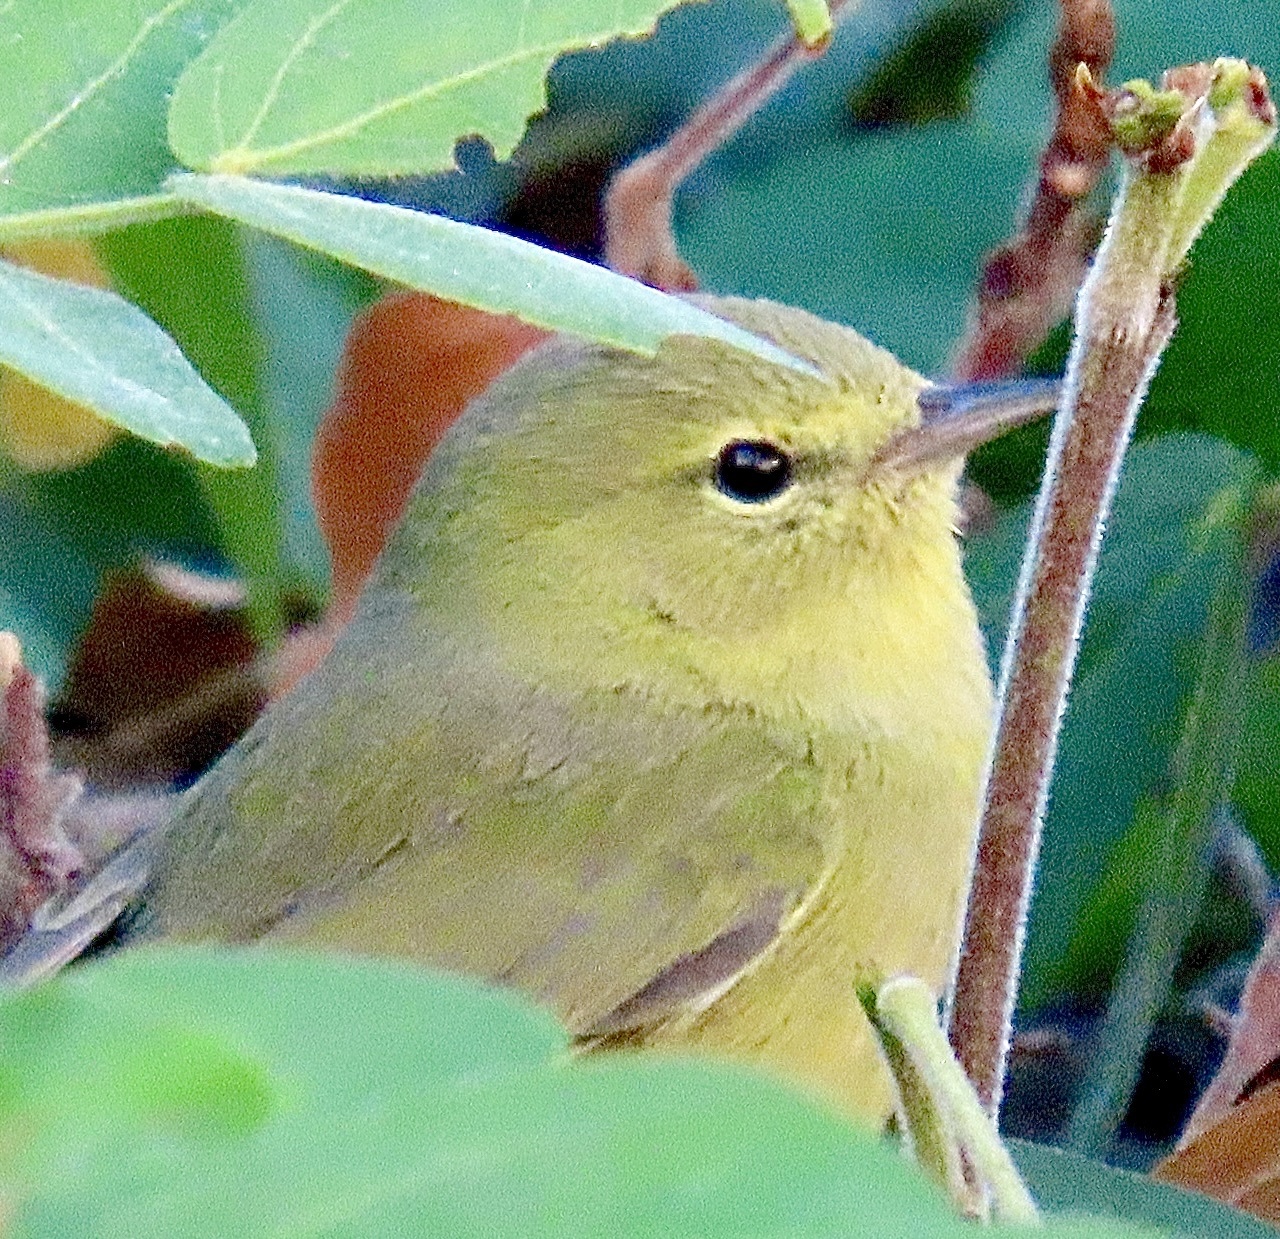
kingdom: Animalia
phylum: Chordata
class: Aves
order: Passeriformes
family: Parulidae
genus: Leiothlypis
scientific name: Leiothlypis celata
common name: Orange-crowned warbler
